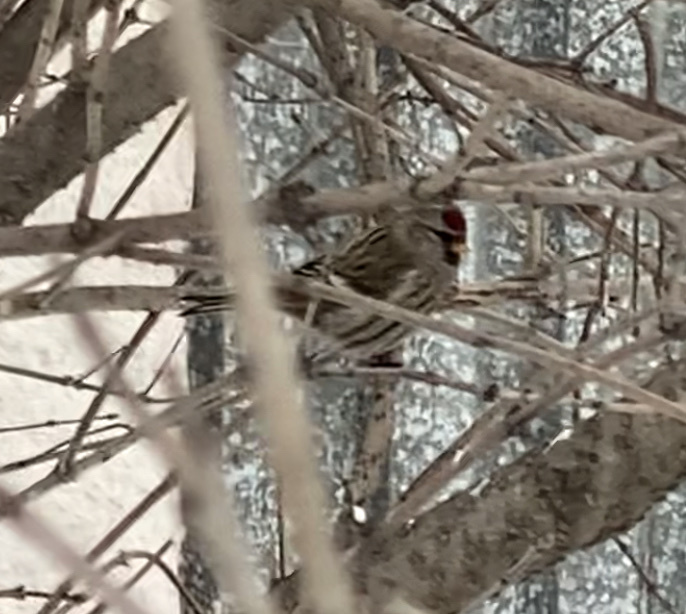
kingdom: Animalia
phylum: Chordata
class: Aves
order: Passeriformes
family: Fringillidae
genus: Acanthis
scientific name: Acanthis flammea
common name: Common redpoll
